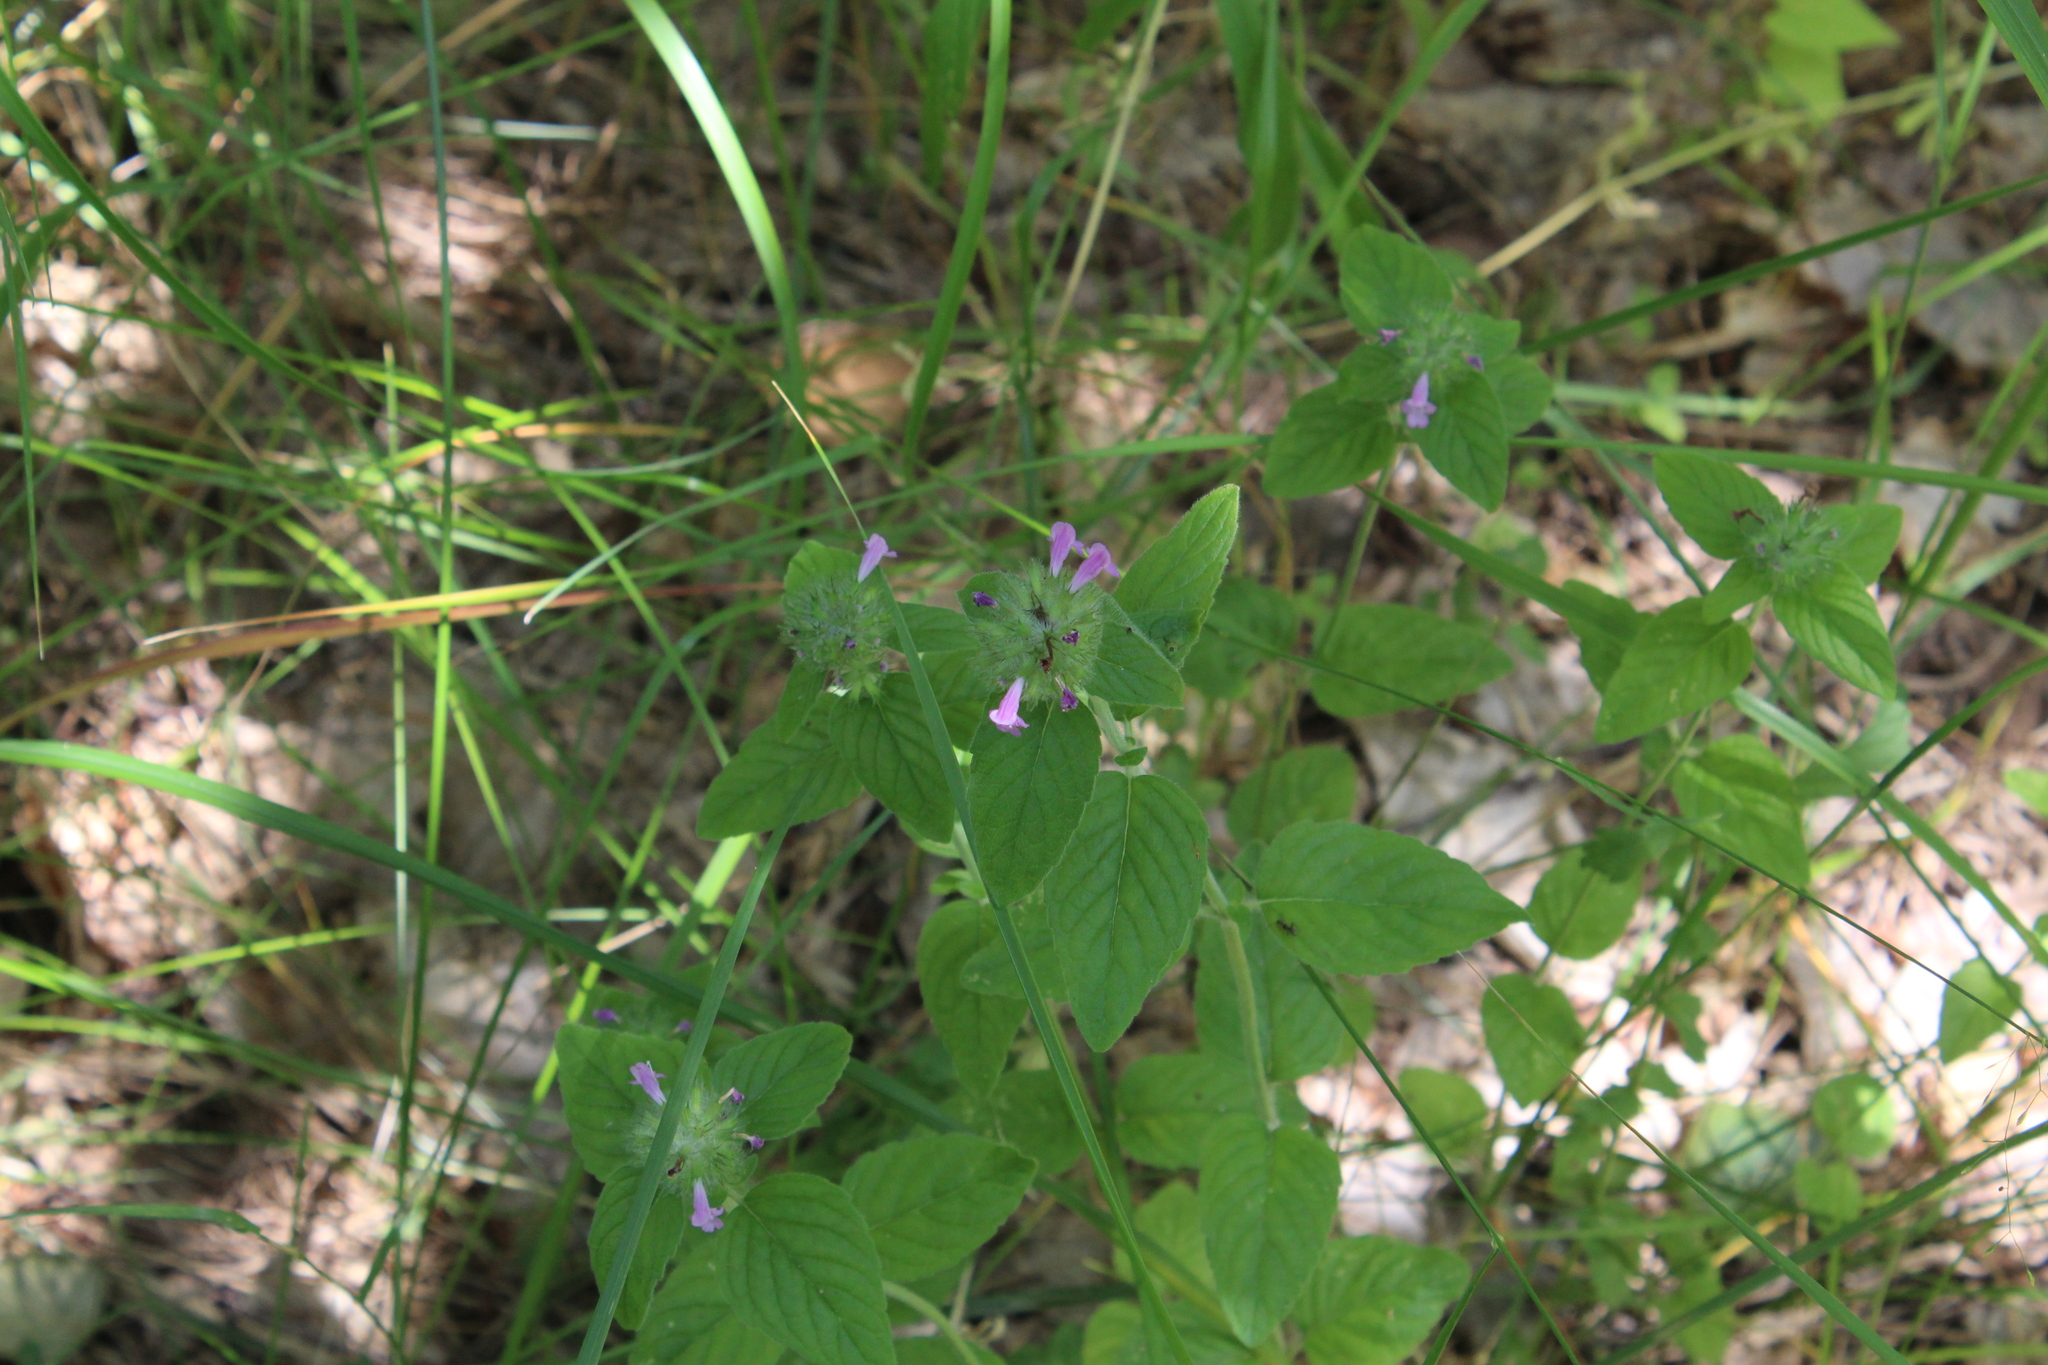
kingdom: Plantae
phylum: Tracheophyta
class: Magnoliopsida
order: Lamiales
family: Lamiaceae
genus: Clinopodium
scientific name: Clinopodium vulgare
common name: Wild basil
